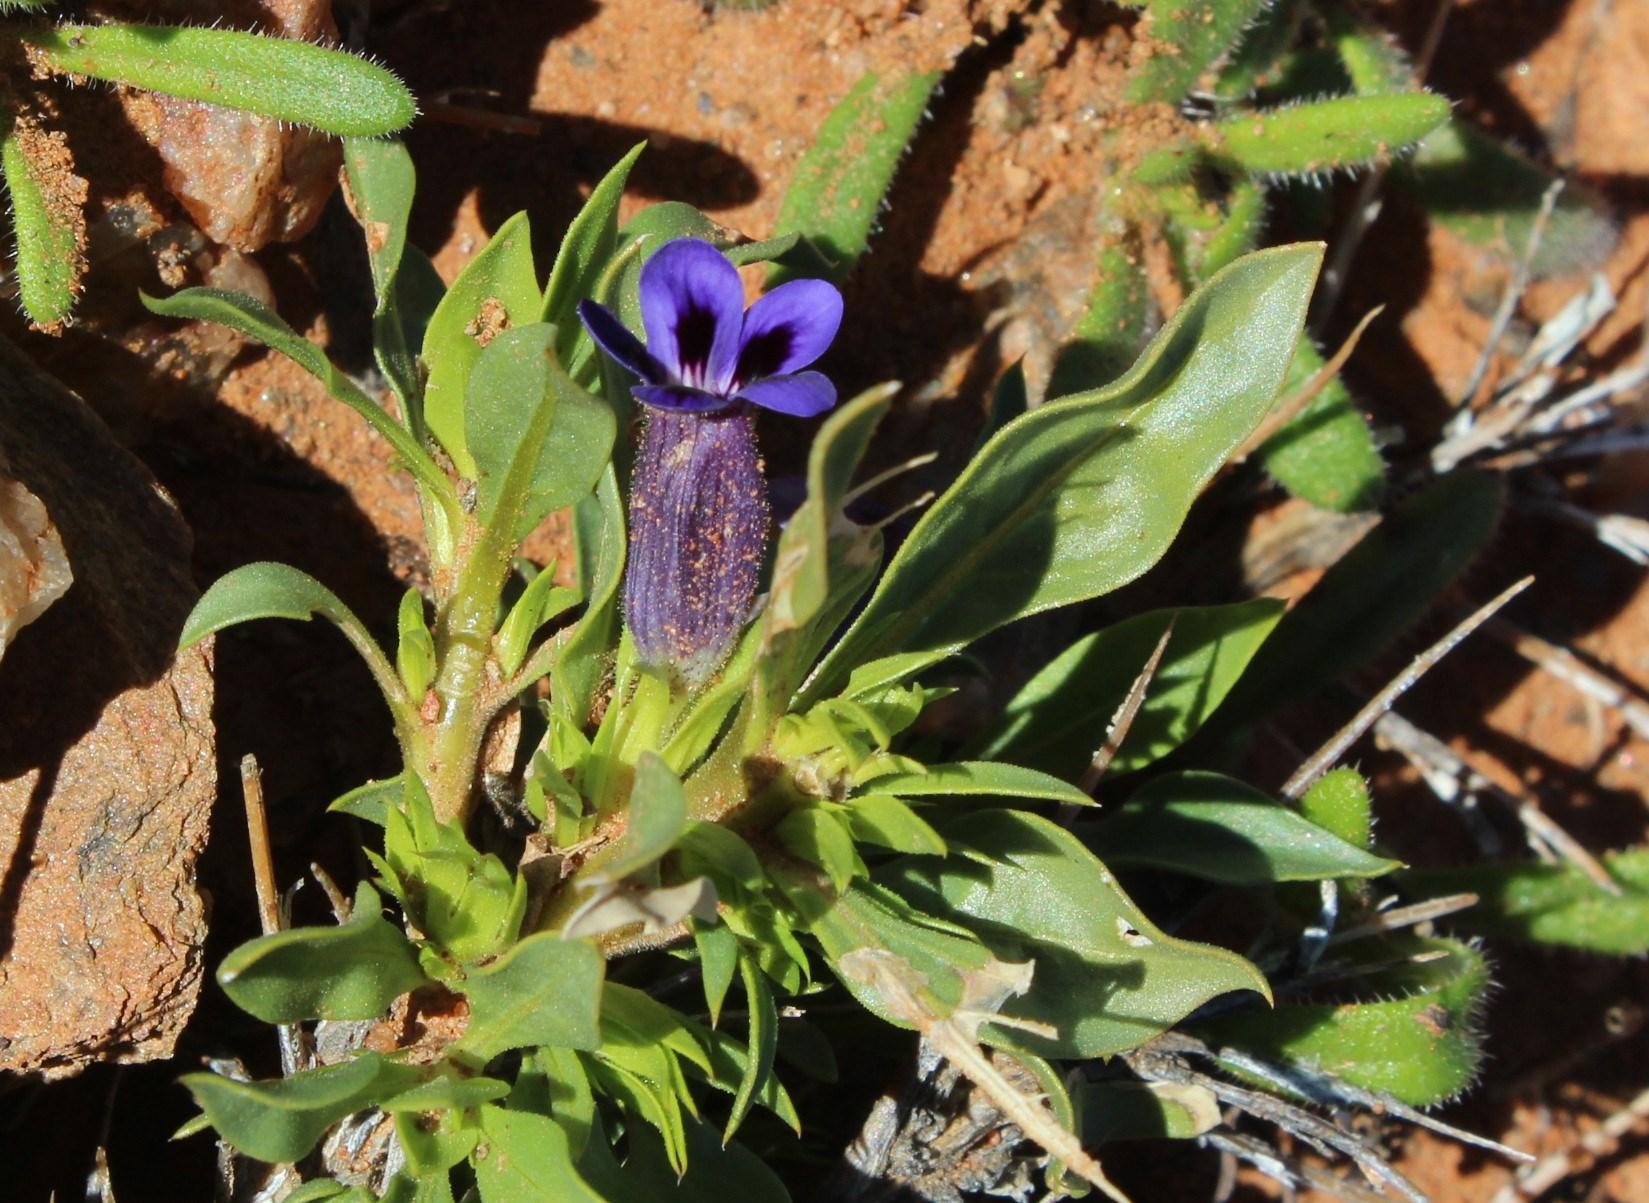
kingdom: Plantae
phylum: Tracheophyta
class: Magnoliopsida
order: Lamiales
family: Scrophulariaceae
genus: Aptosimum
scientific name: Aptosimum viscosum
